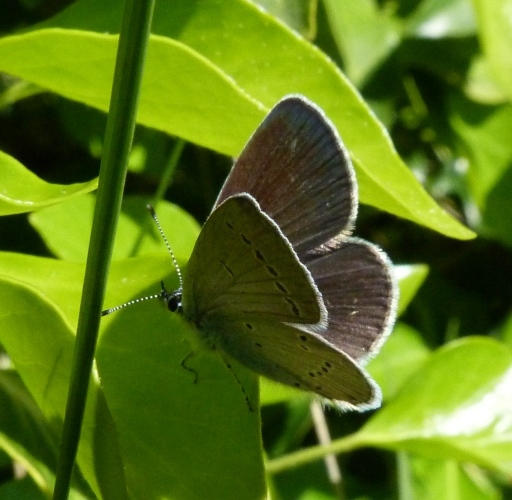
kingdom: Animalia
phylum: Arthropoda
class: Insecta
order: Lepidoptera
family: Lycaenidae
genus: Cupido
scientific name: Cupido minimus
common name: Small blue
